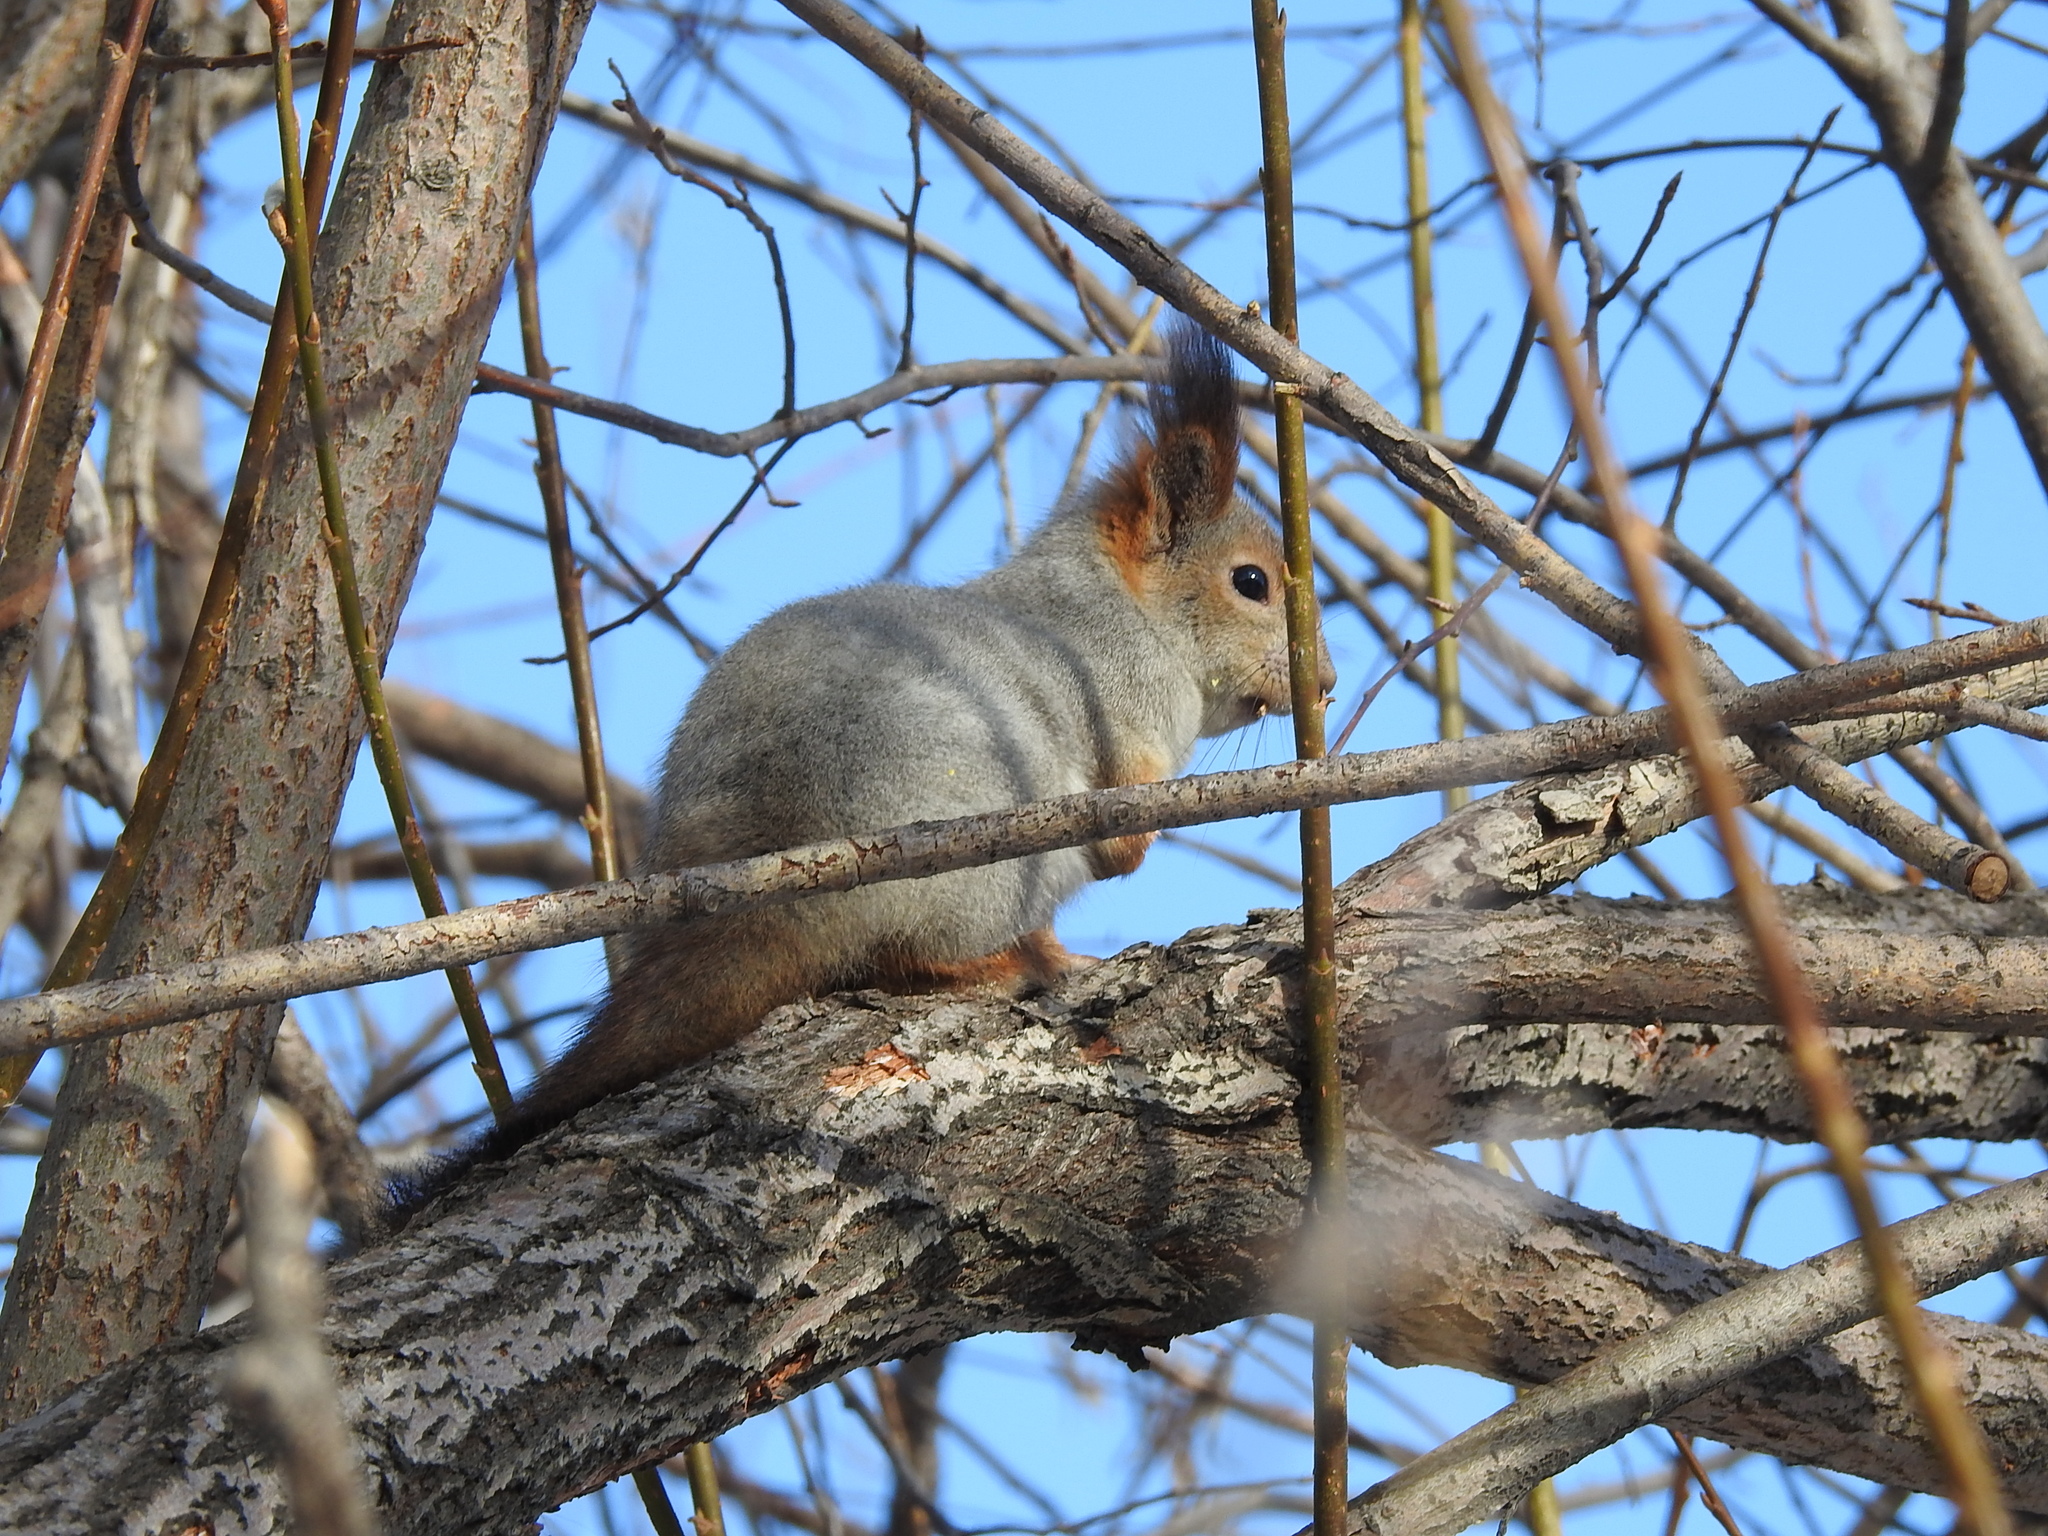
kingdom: Animalia
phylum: Chordata
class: Mammalia
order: Rodentia
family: Sciuridae
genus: Sciurus
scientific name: Sciurus vulgaris
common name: Eurasian red squirrel
